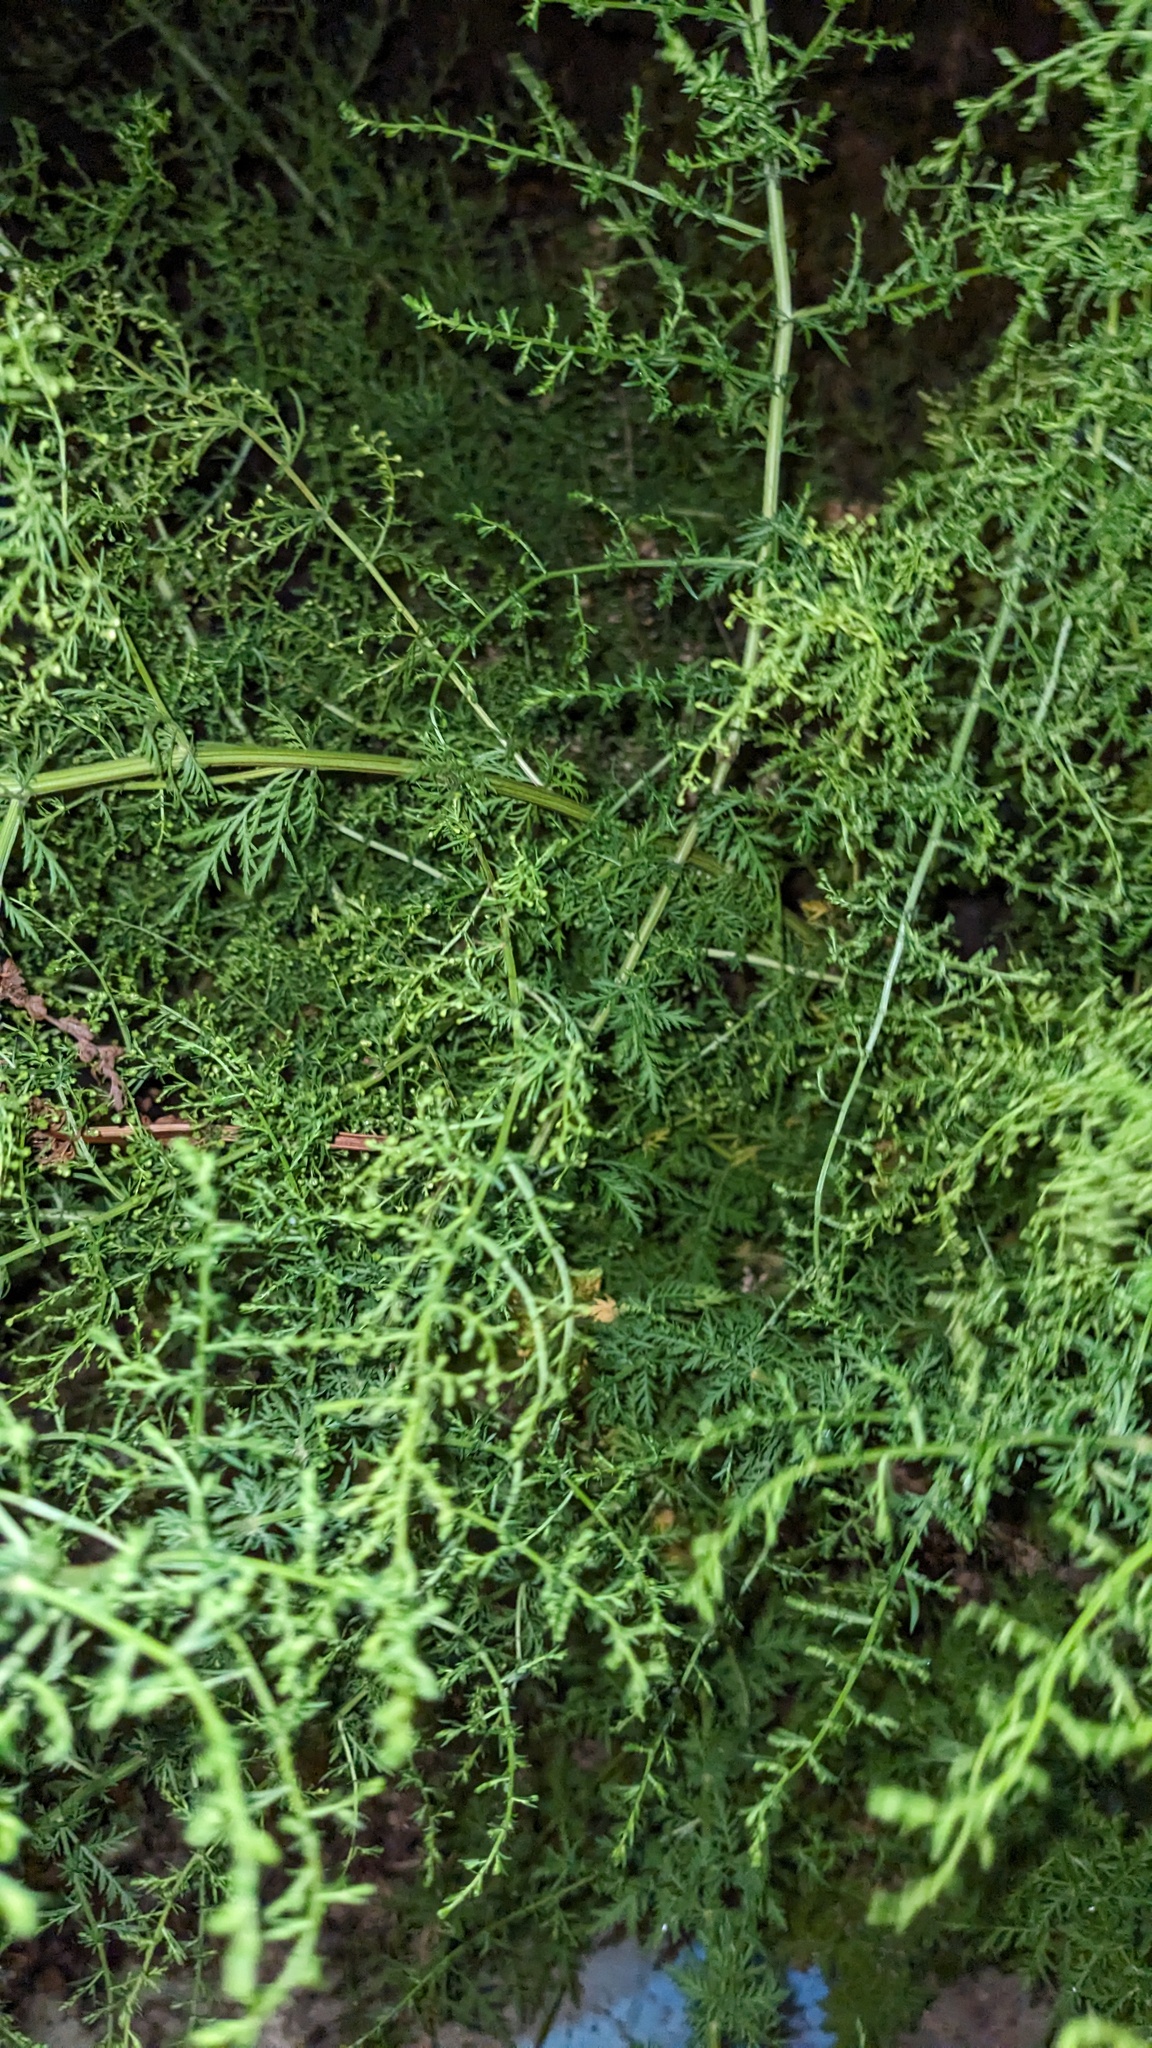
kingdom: Plantae
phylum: Tracheophyta
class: Magnoliopsida
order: Asterales
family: Asteraceae
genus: Artemisia
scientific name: Artemisia annua
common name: Sweet sagewort
